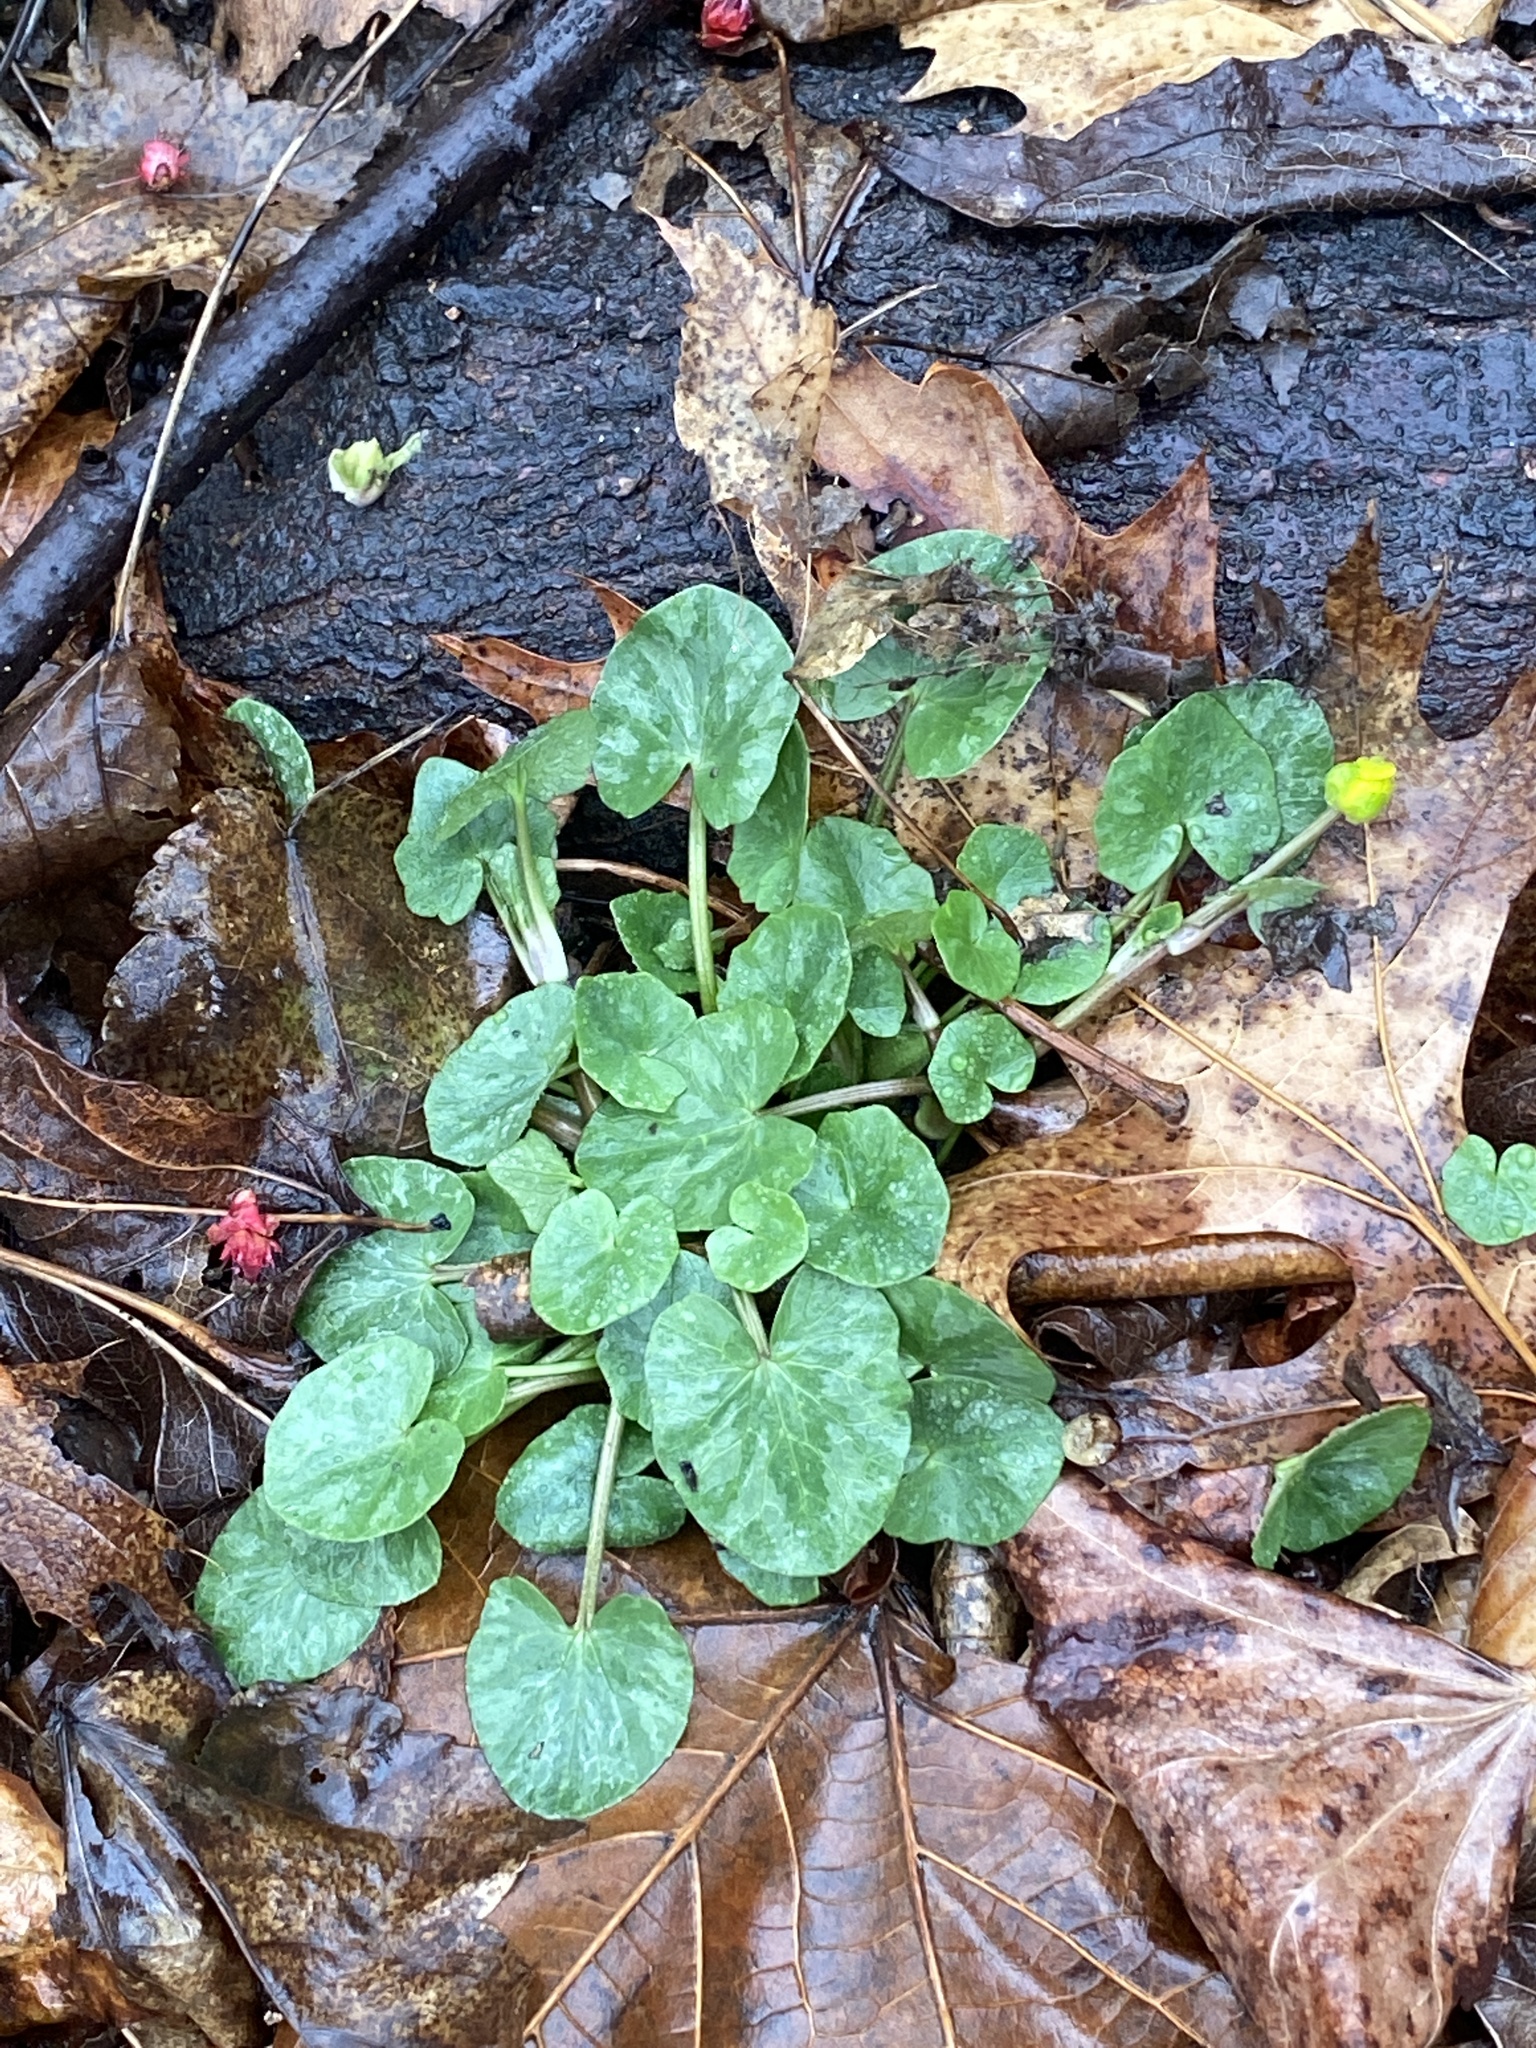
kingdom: Plantae
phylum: Tracheophyta
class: Magnoliopsida
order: Ranunculales
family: Ranunculaceae
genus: Ficaria
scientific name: Ficaria verna
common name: Lesser celandine
